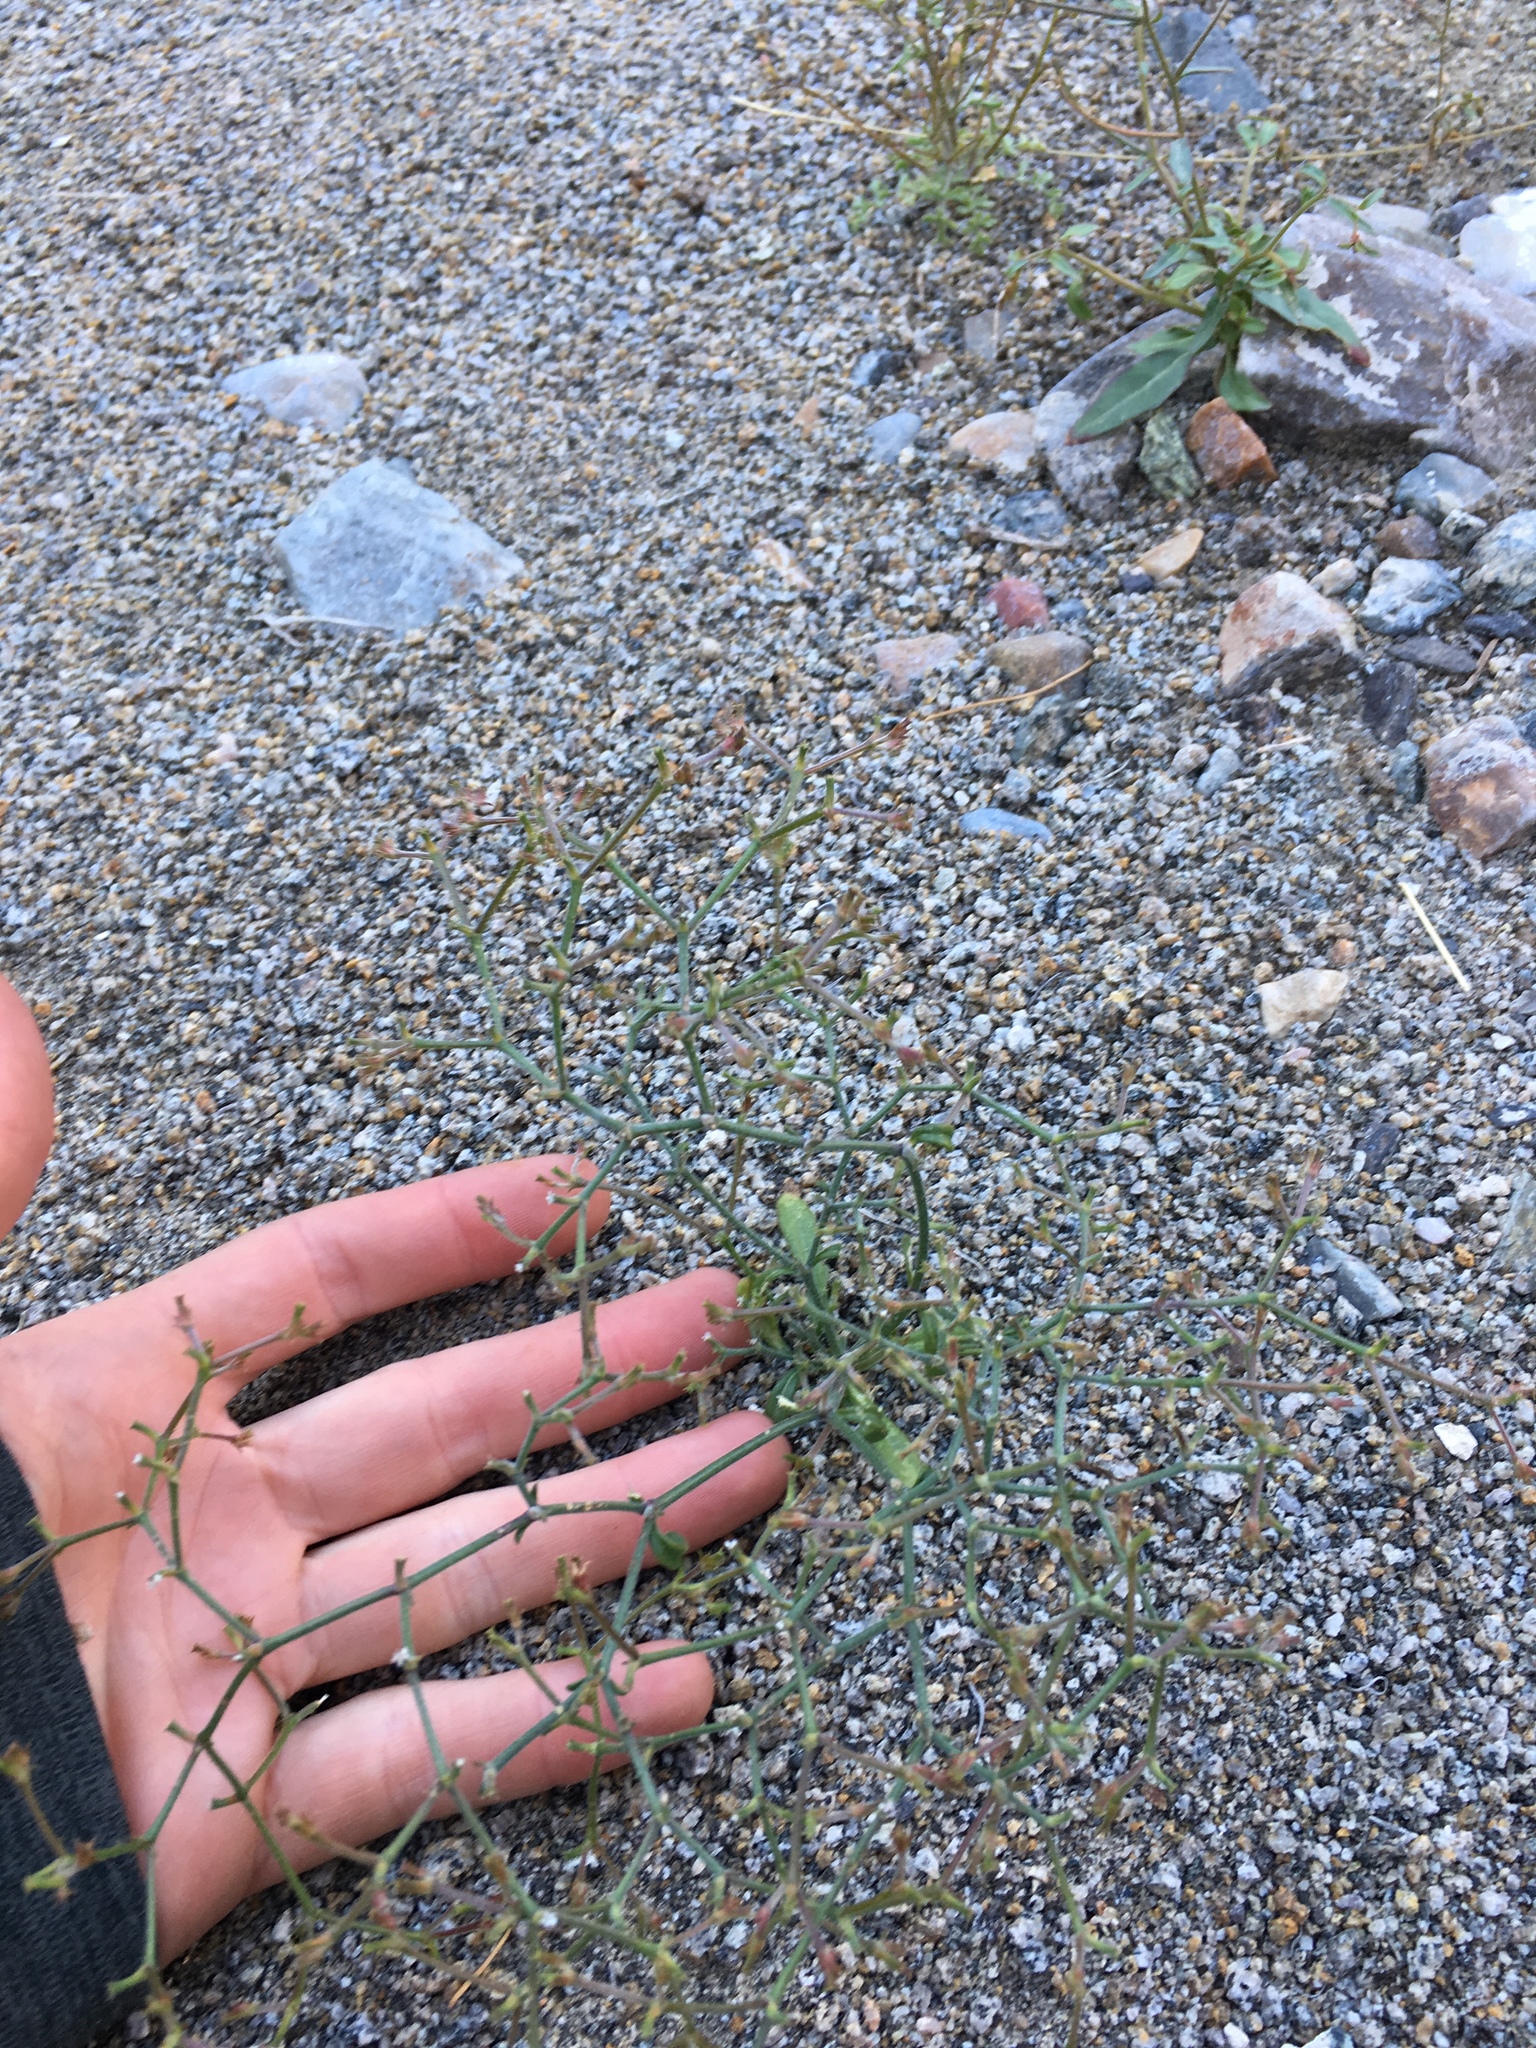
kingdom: Plantae
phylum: Tracheophyta
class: Magnoliopsida
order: Caryophyllales
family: Polygonaceae
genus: Chorizanthe
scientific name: Chorizanthe brevicornu
